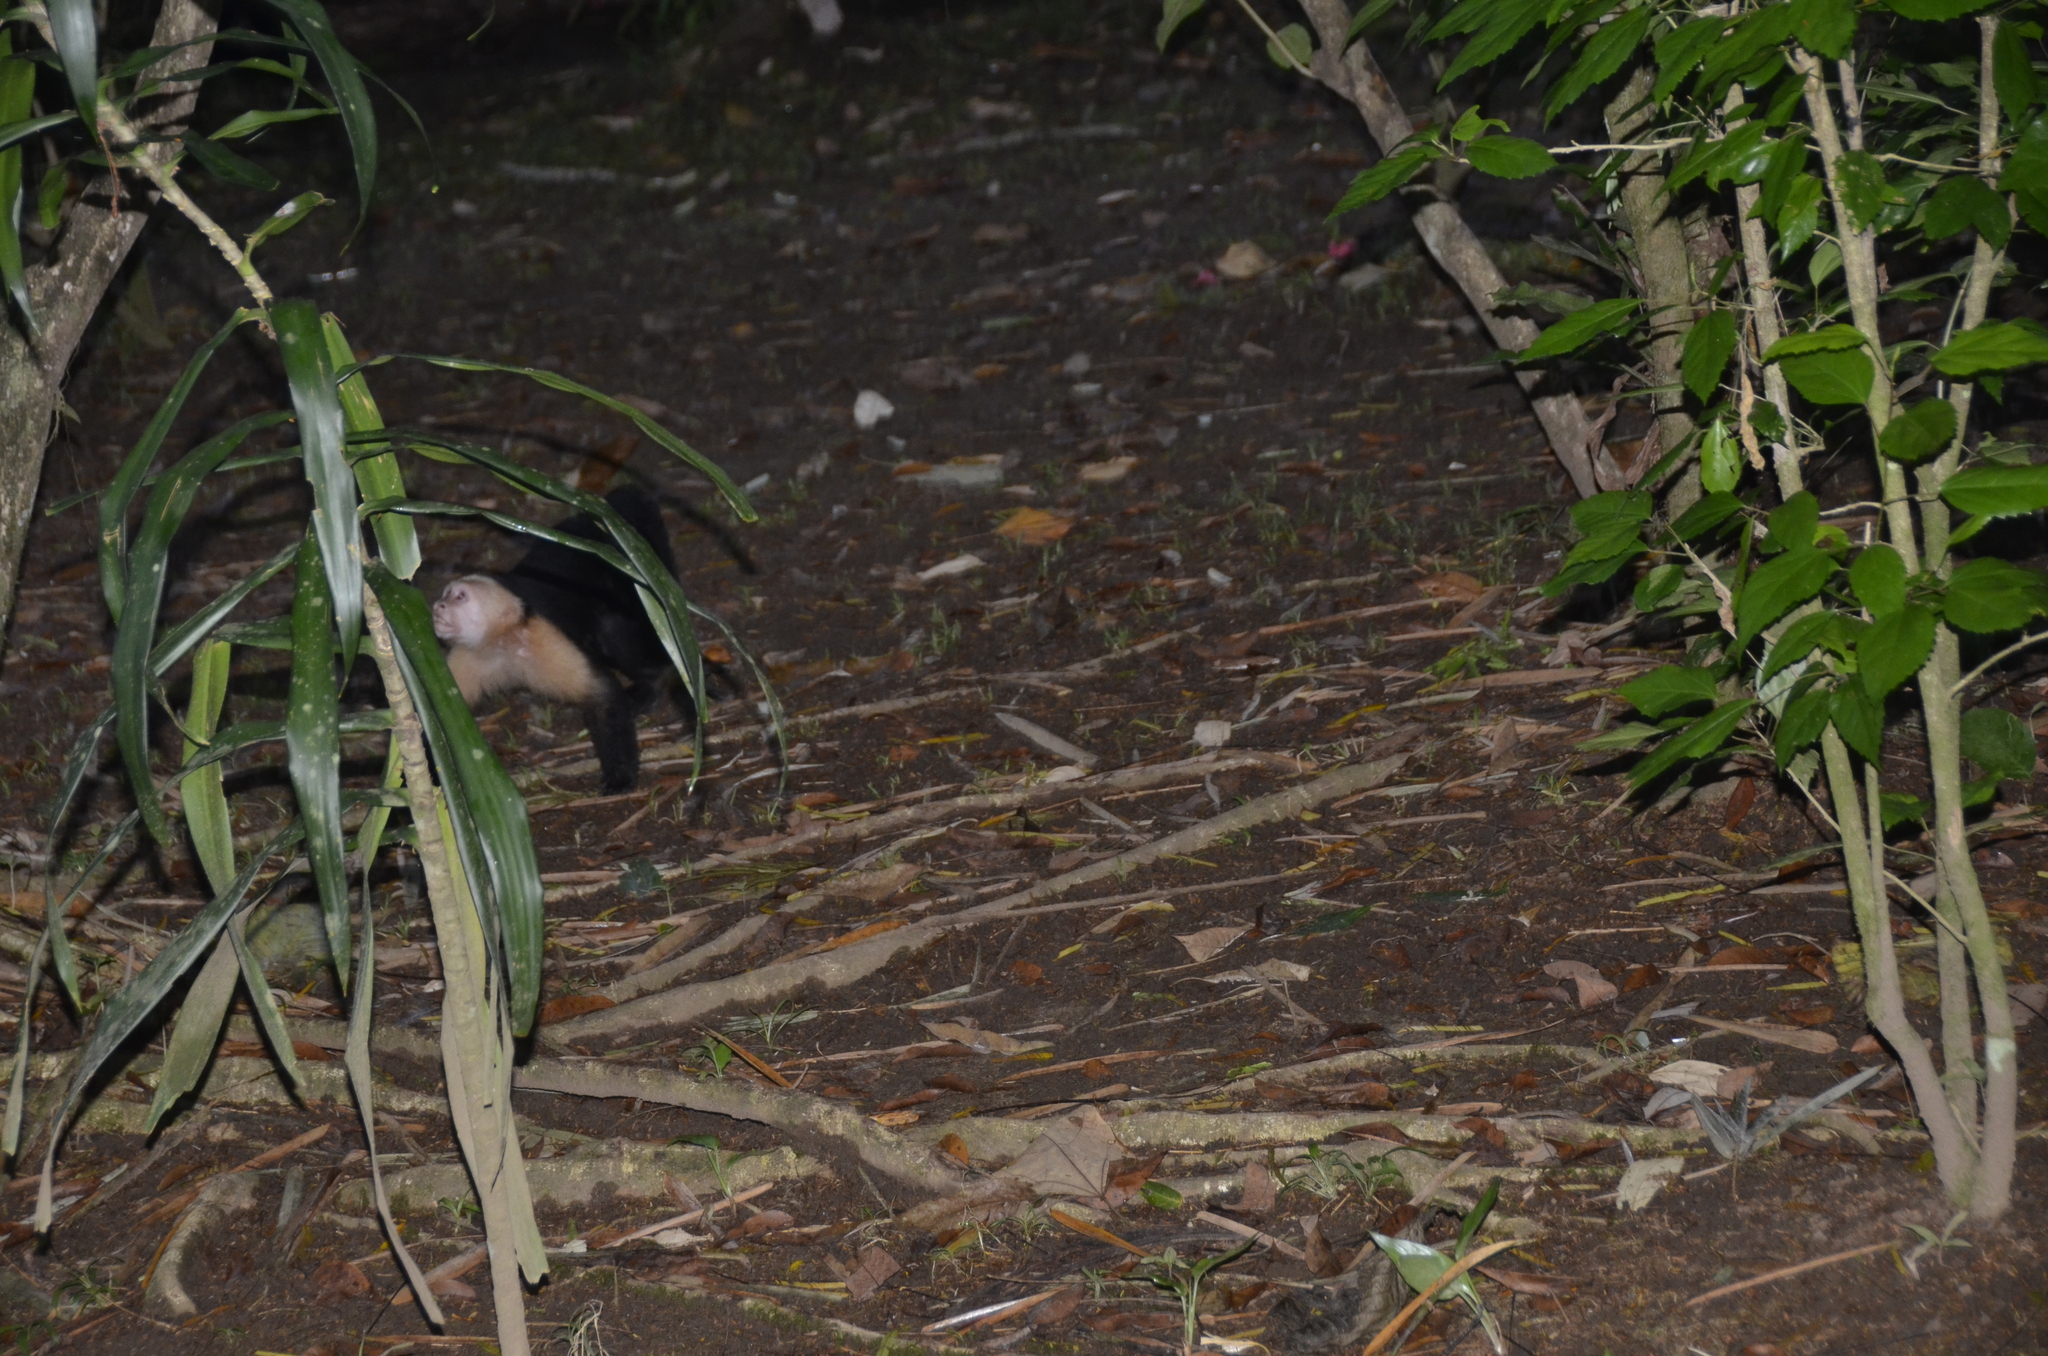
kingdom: Animalia
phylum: Chordata
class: Mammalia
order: Primates
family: Cebidae
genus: Cebus
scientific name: Cebus imitator
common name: Panamanian white-faced capuchin
